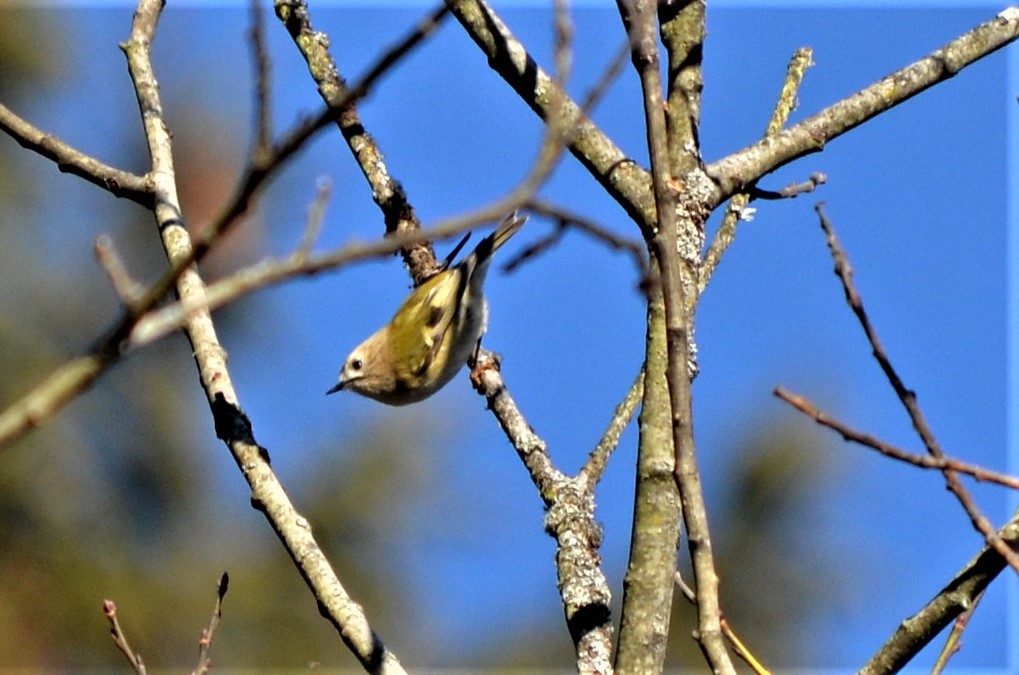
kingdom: Animalia
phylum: Chordata
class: Aves
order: Passeriformes
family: Regulidae
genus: Regulus
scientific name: Regulus regulus
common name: Goldcrest
